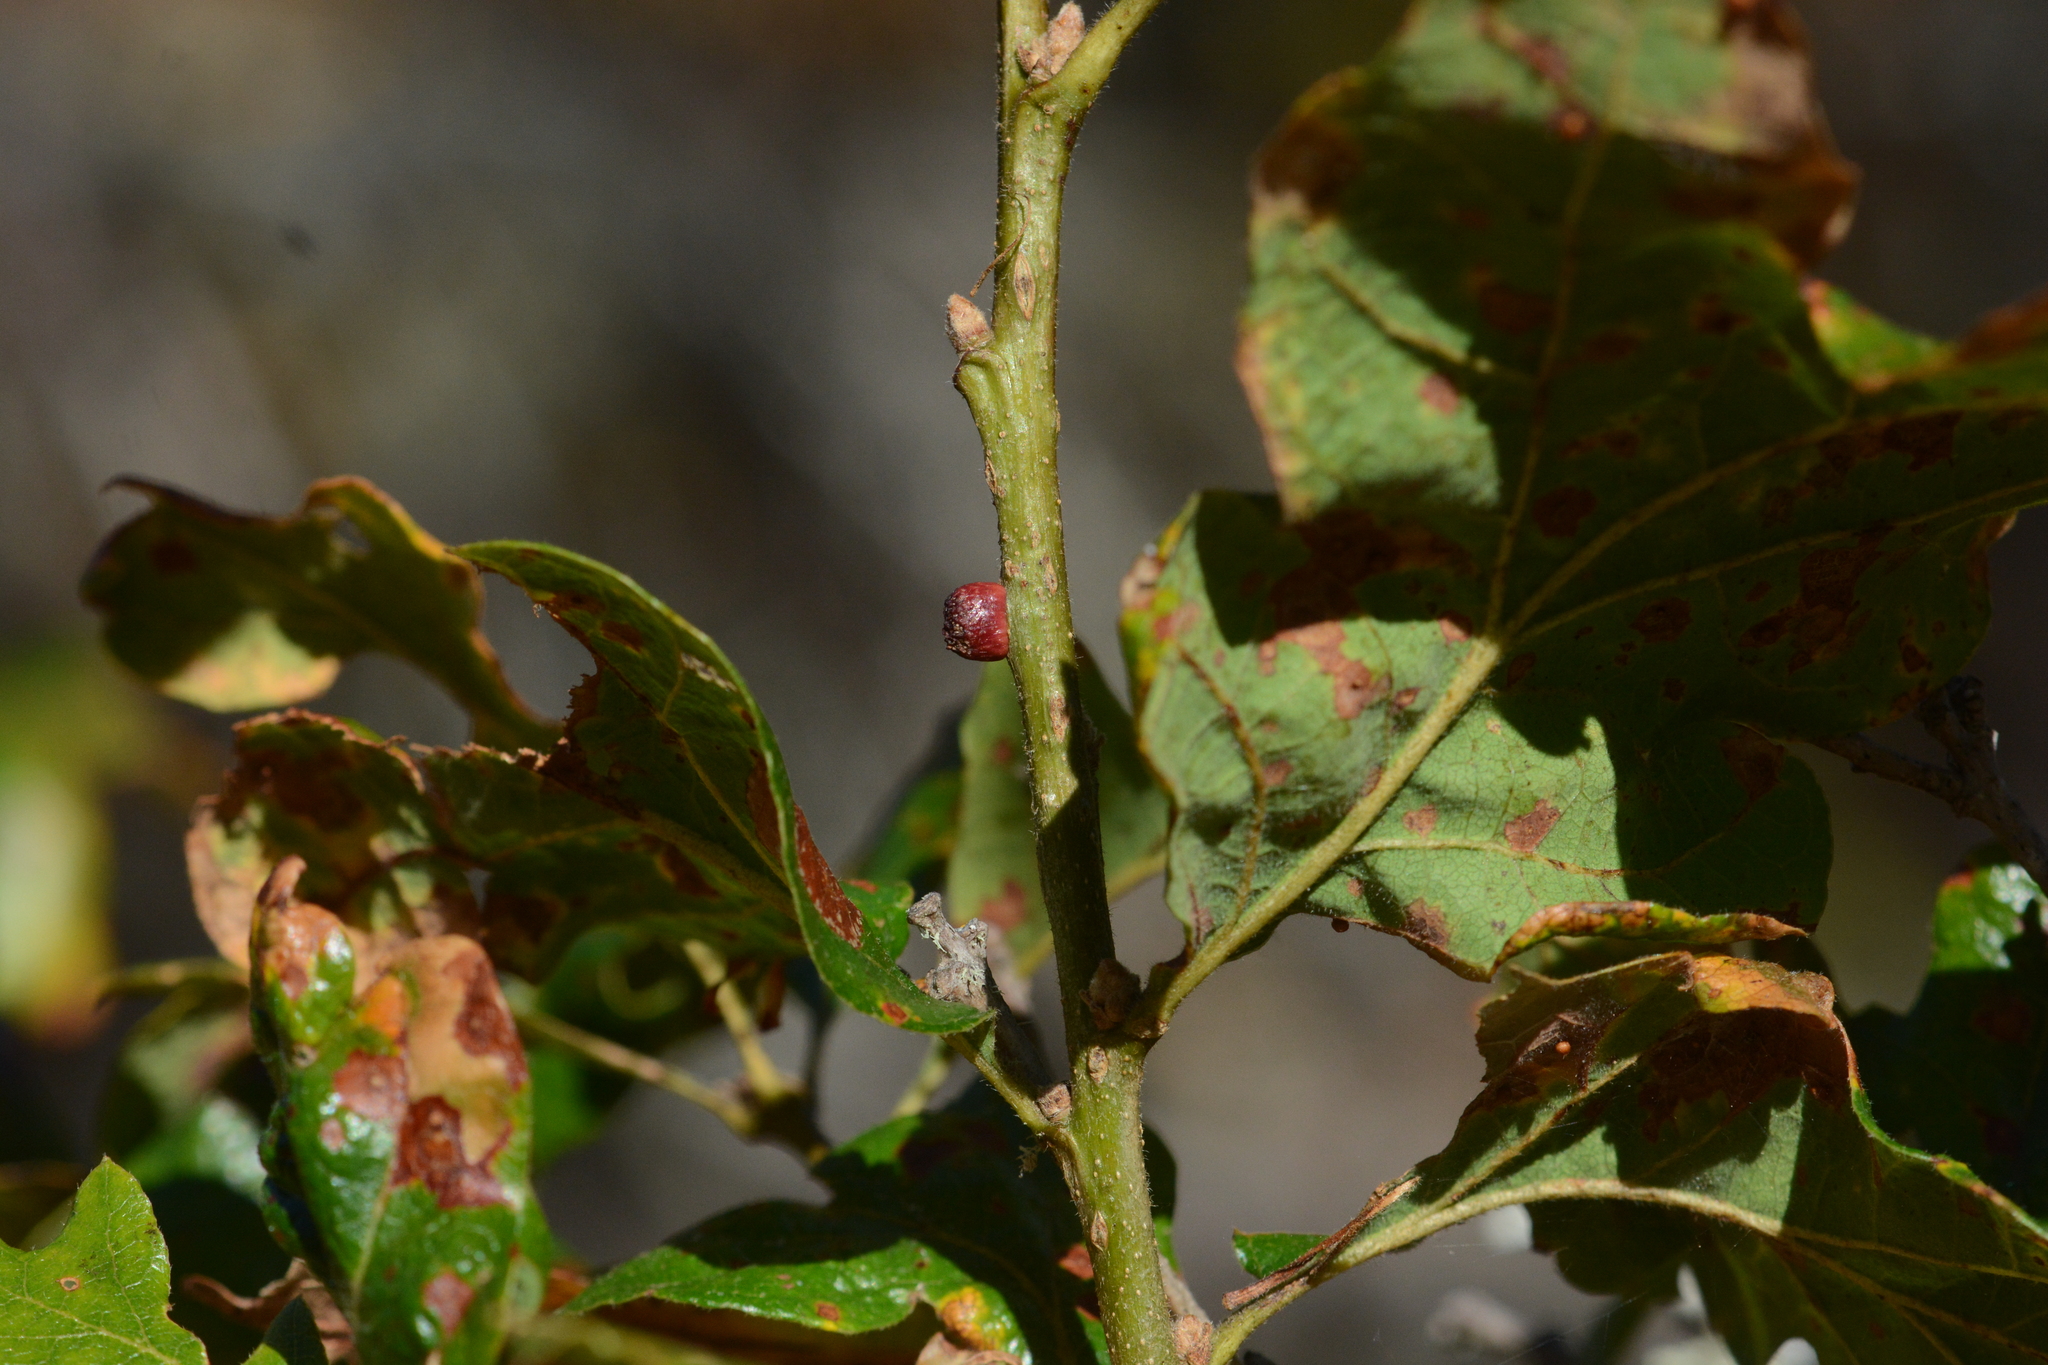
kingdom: Animalia
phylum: Arthropoda
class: Insecta
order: Hymenoptera
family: Cynipidae
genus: Disholcaspis
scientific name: Disholcaspis
